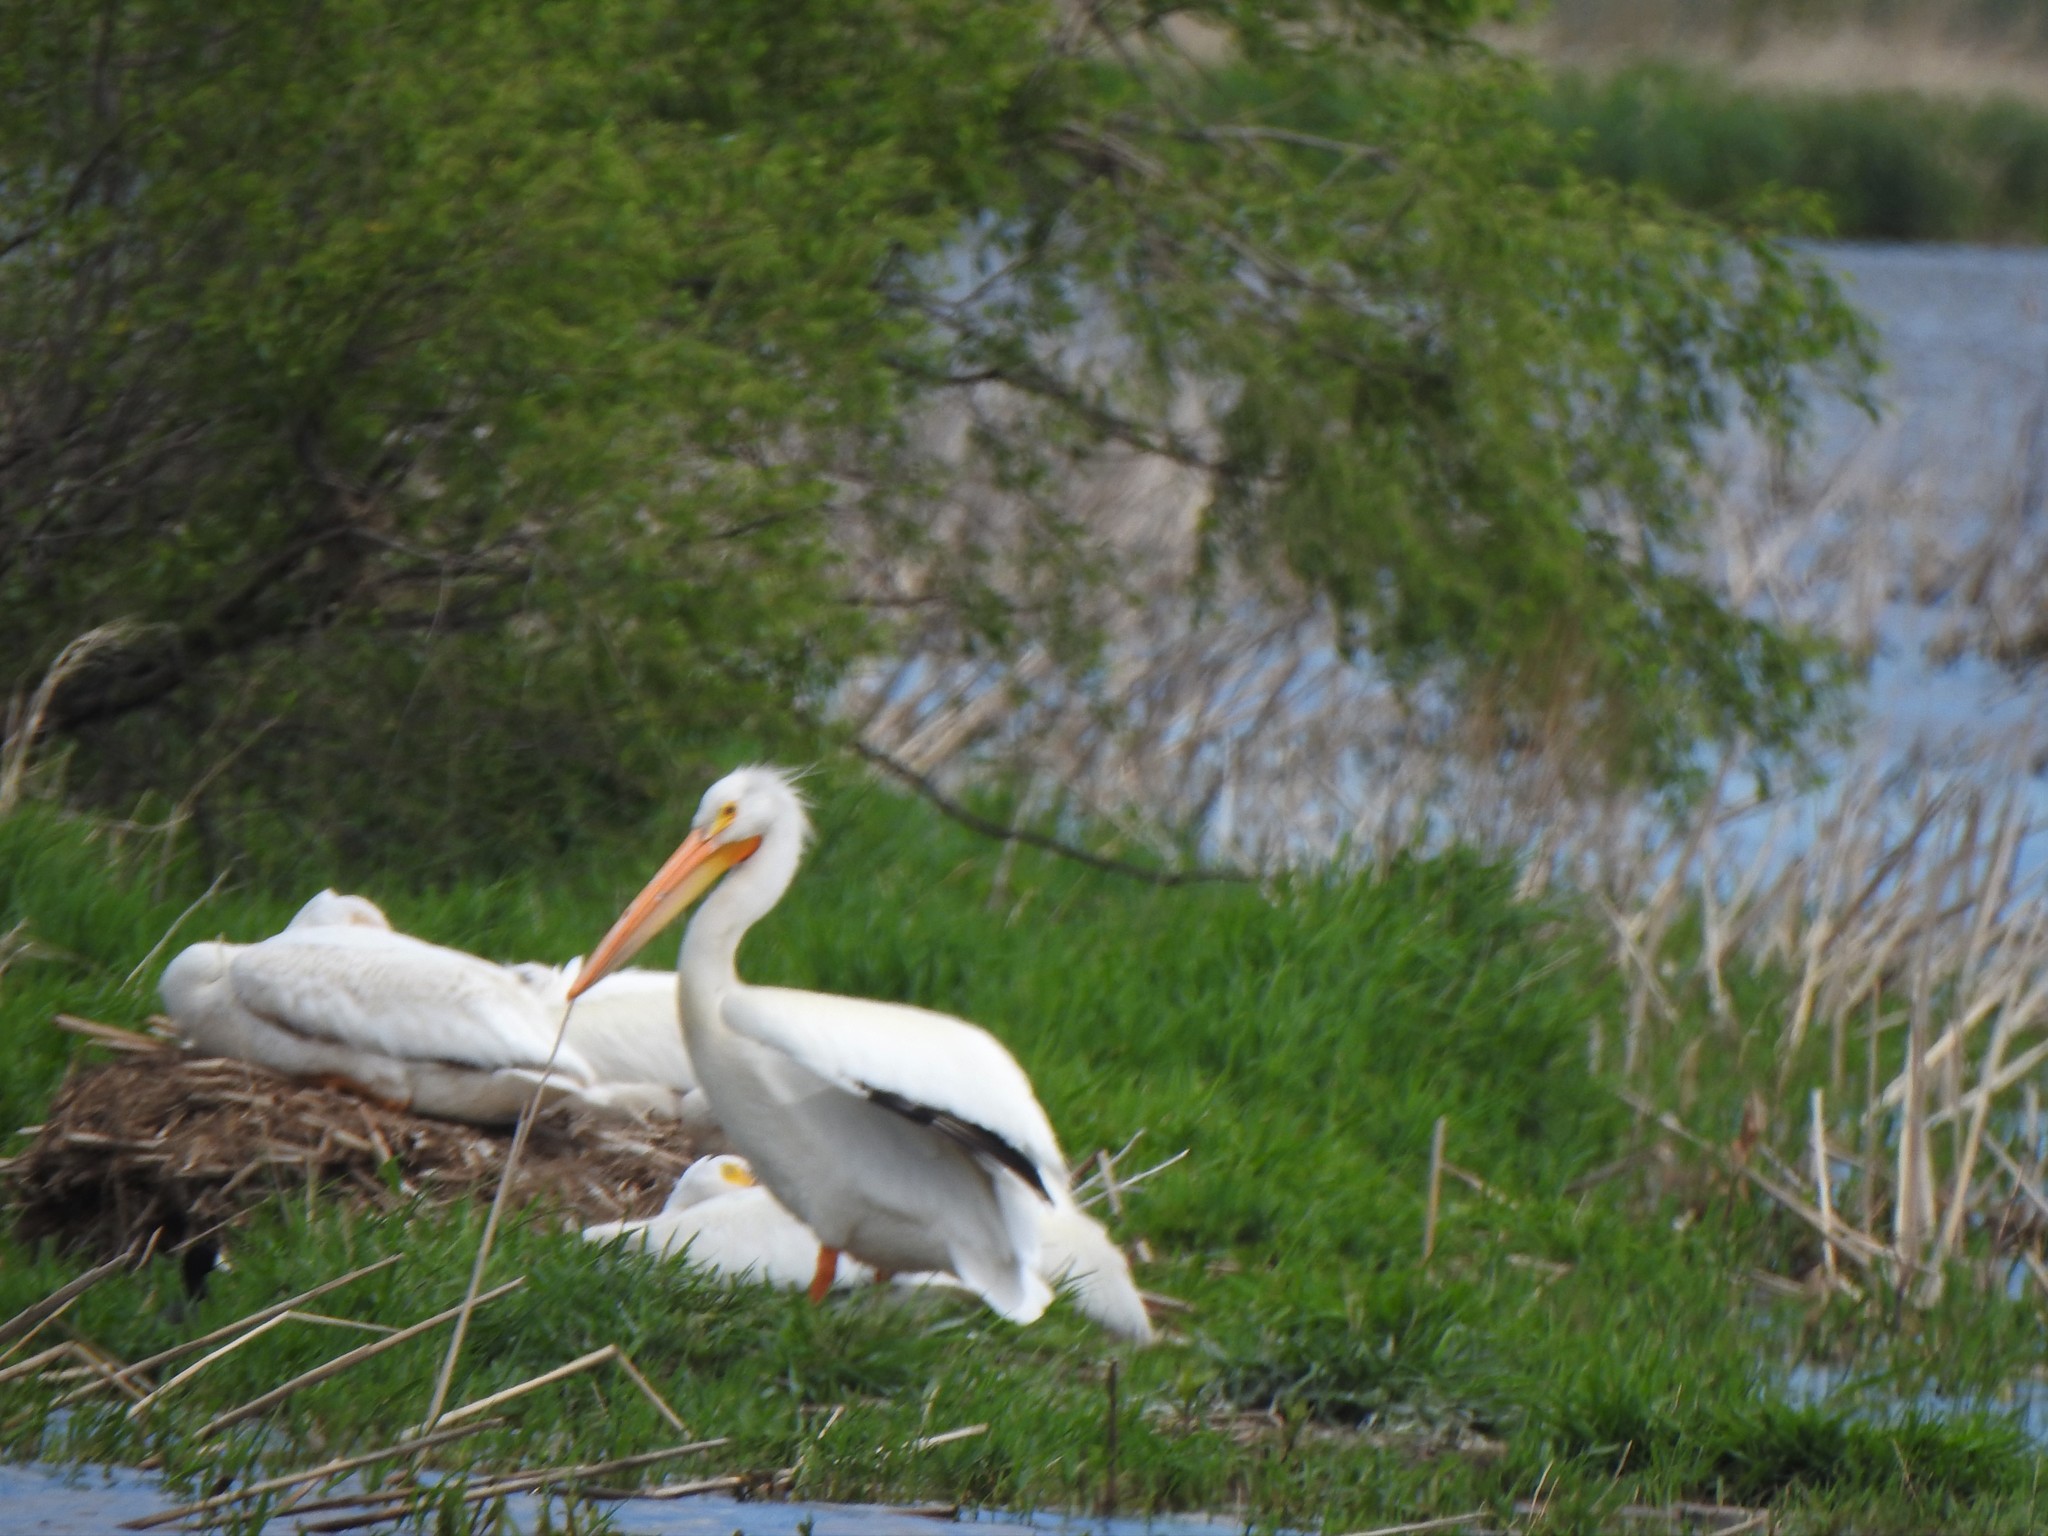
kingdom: Animalia
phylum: Chordata
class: Aves
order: Pelecaniformes
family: Pelecanidae
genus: Pelecanus
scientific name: Pelecanus erythrorhynchos
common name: American white pelican
